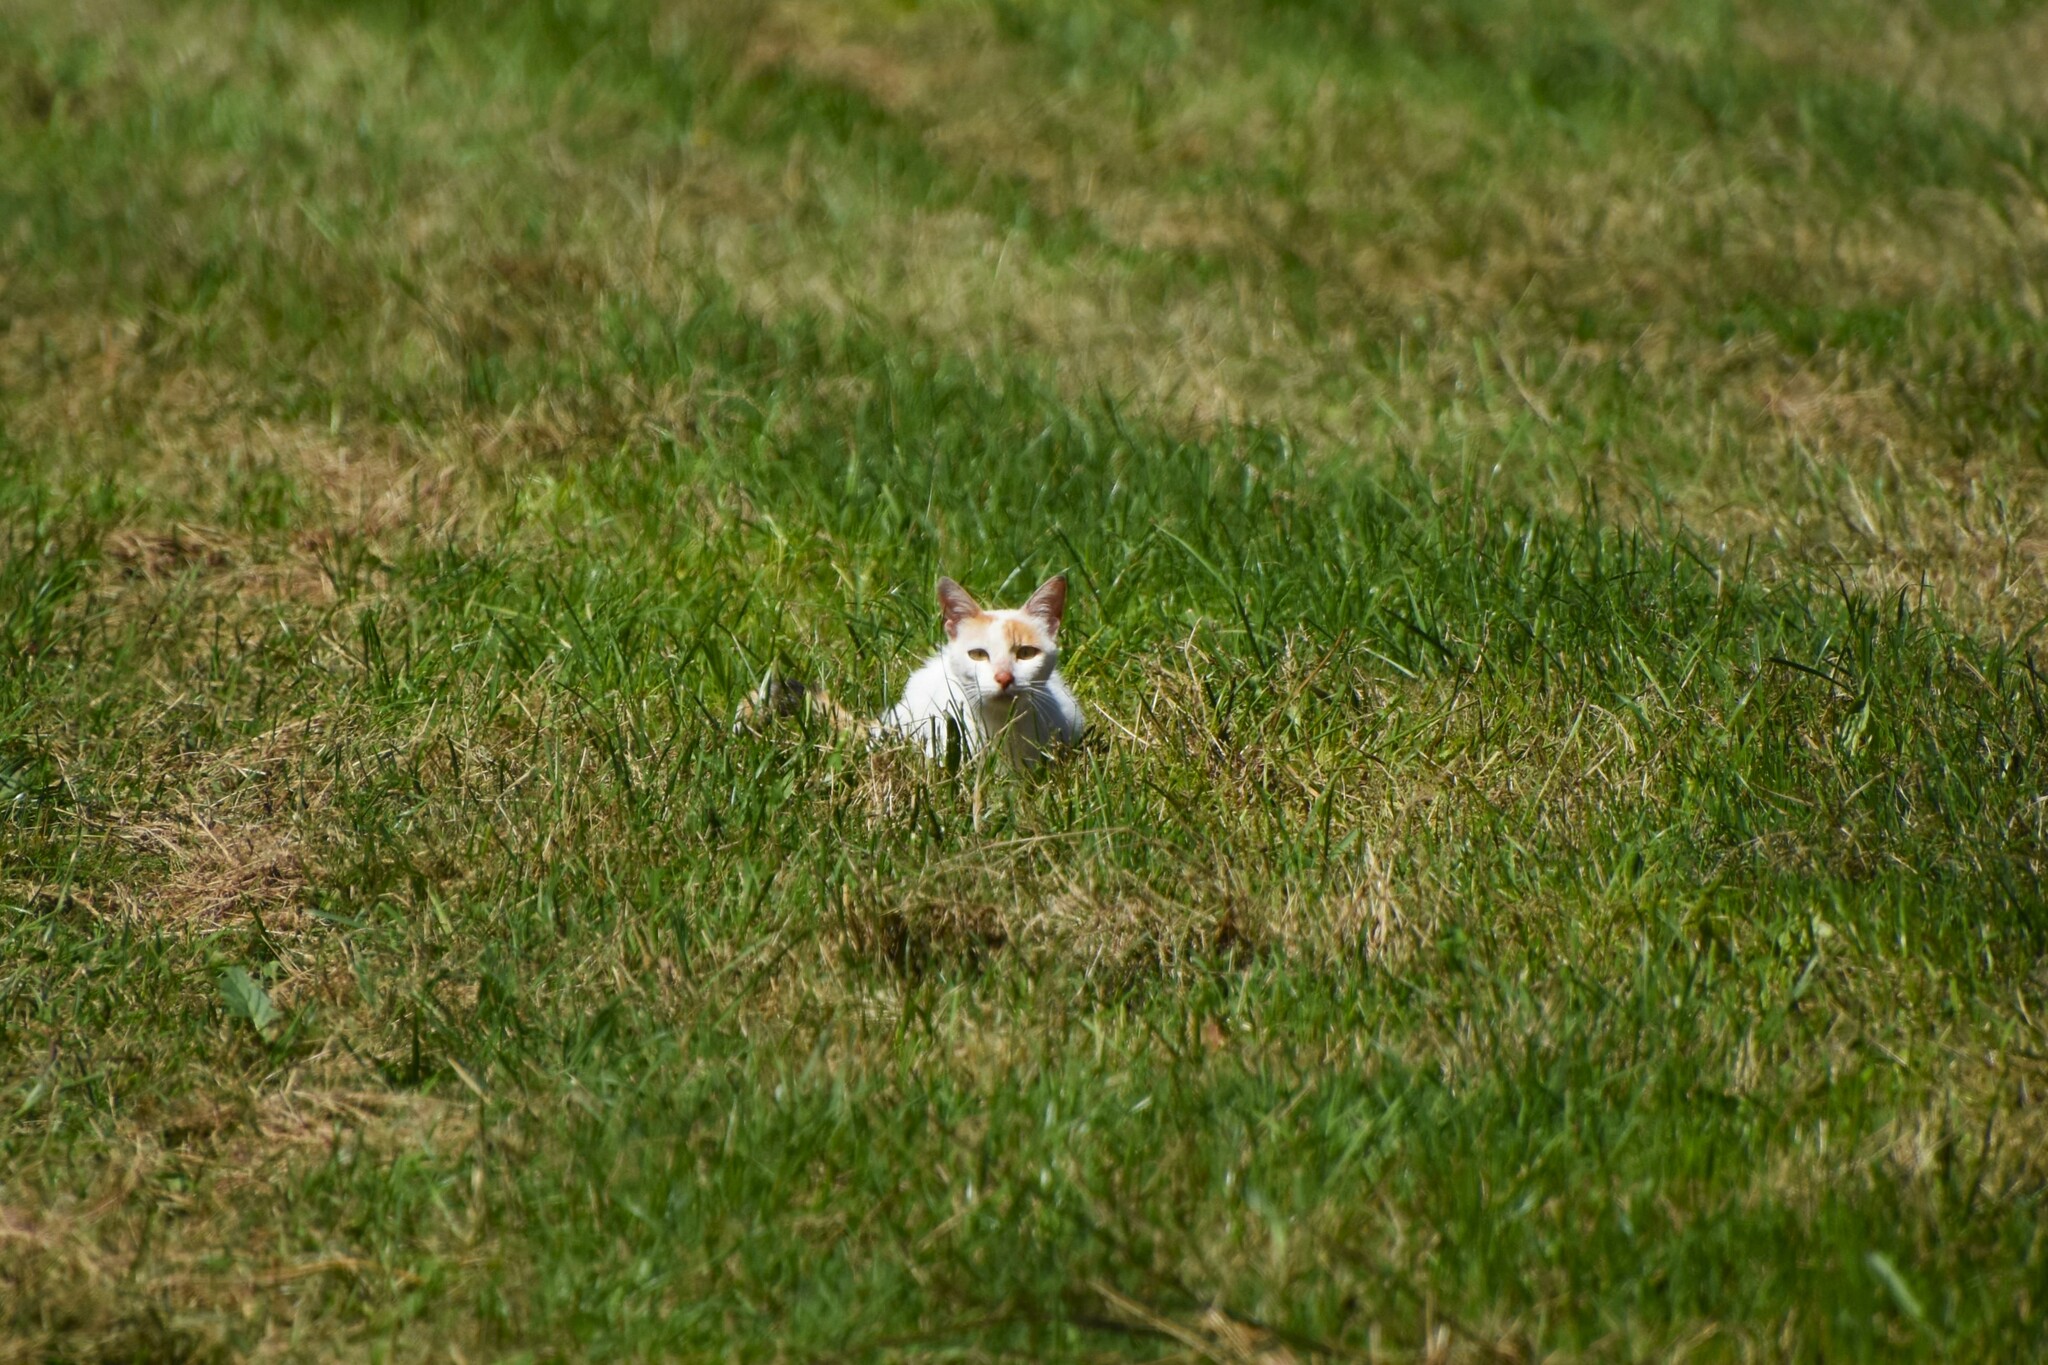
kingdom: Animalia
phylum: Chordata
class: Mammalia
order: Carnivora
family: Felidae
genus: Felis
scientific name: Felis catus
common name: Domestic cat
